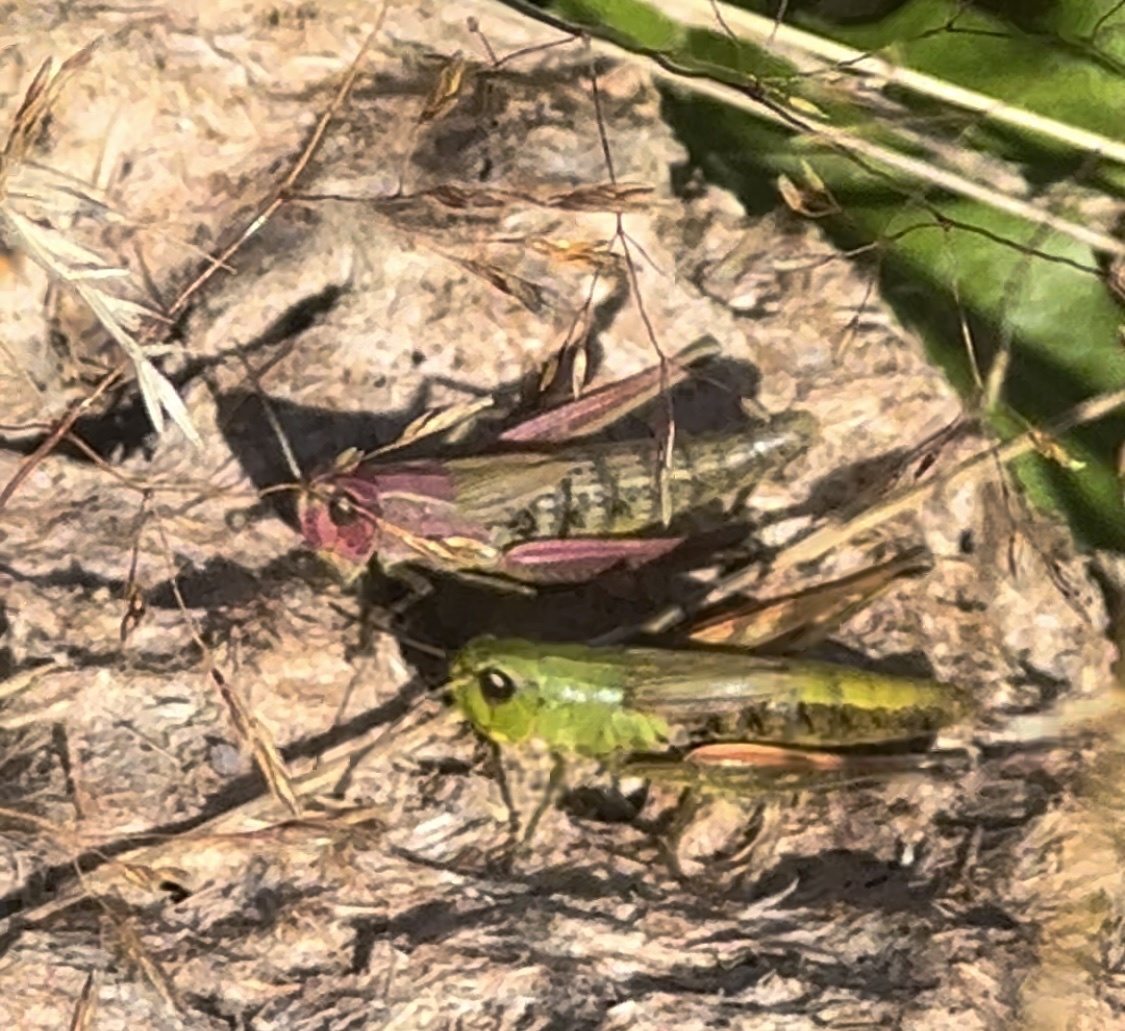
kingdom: Animalia
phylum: Arthropoda
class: Insecta
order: Orthoptera
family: Acrididae
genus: Pseudochorthippus
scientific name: Pseudochorthippus parallelus
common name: Meadow grasshopper
